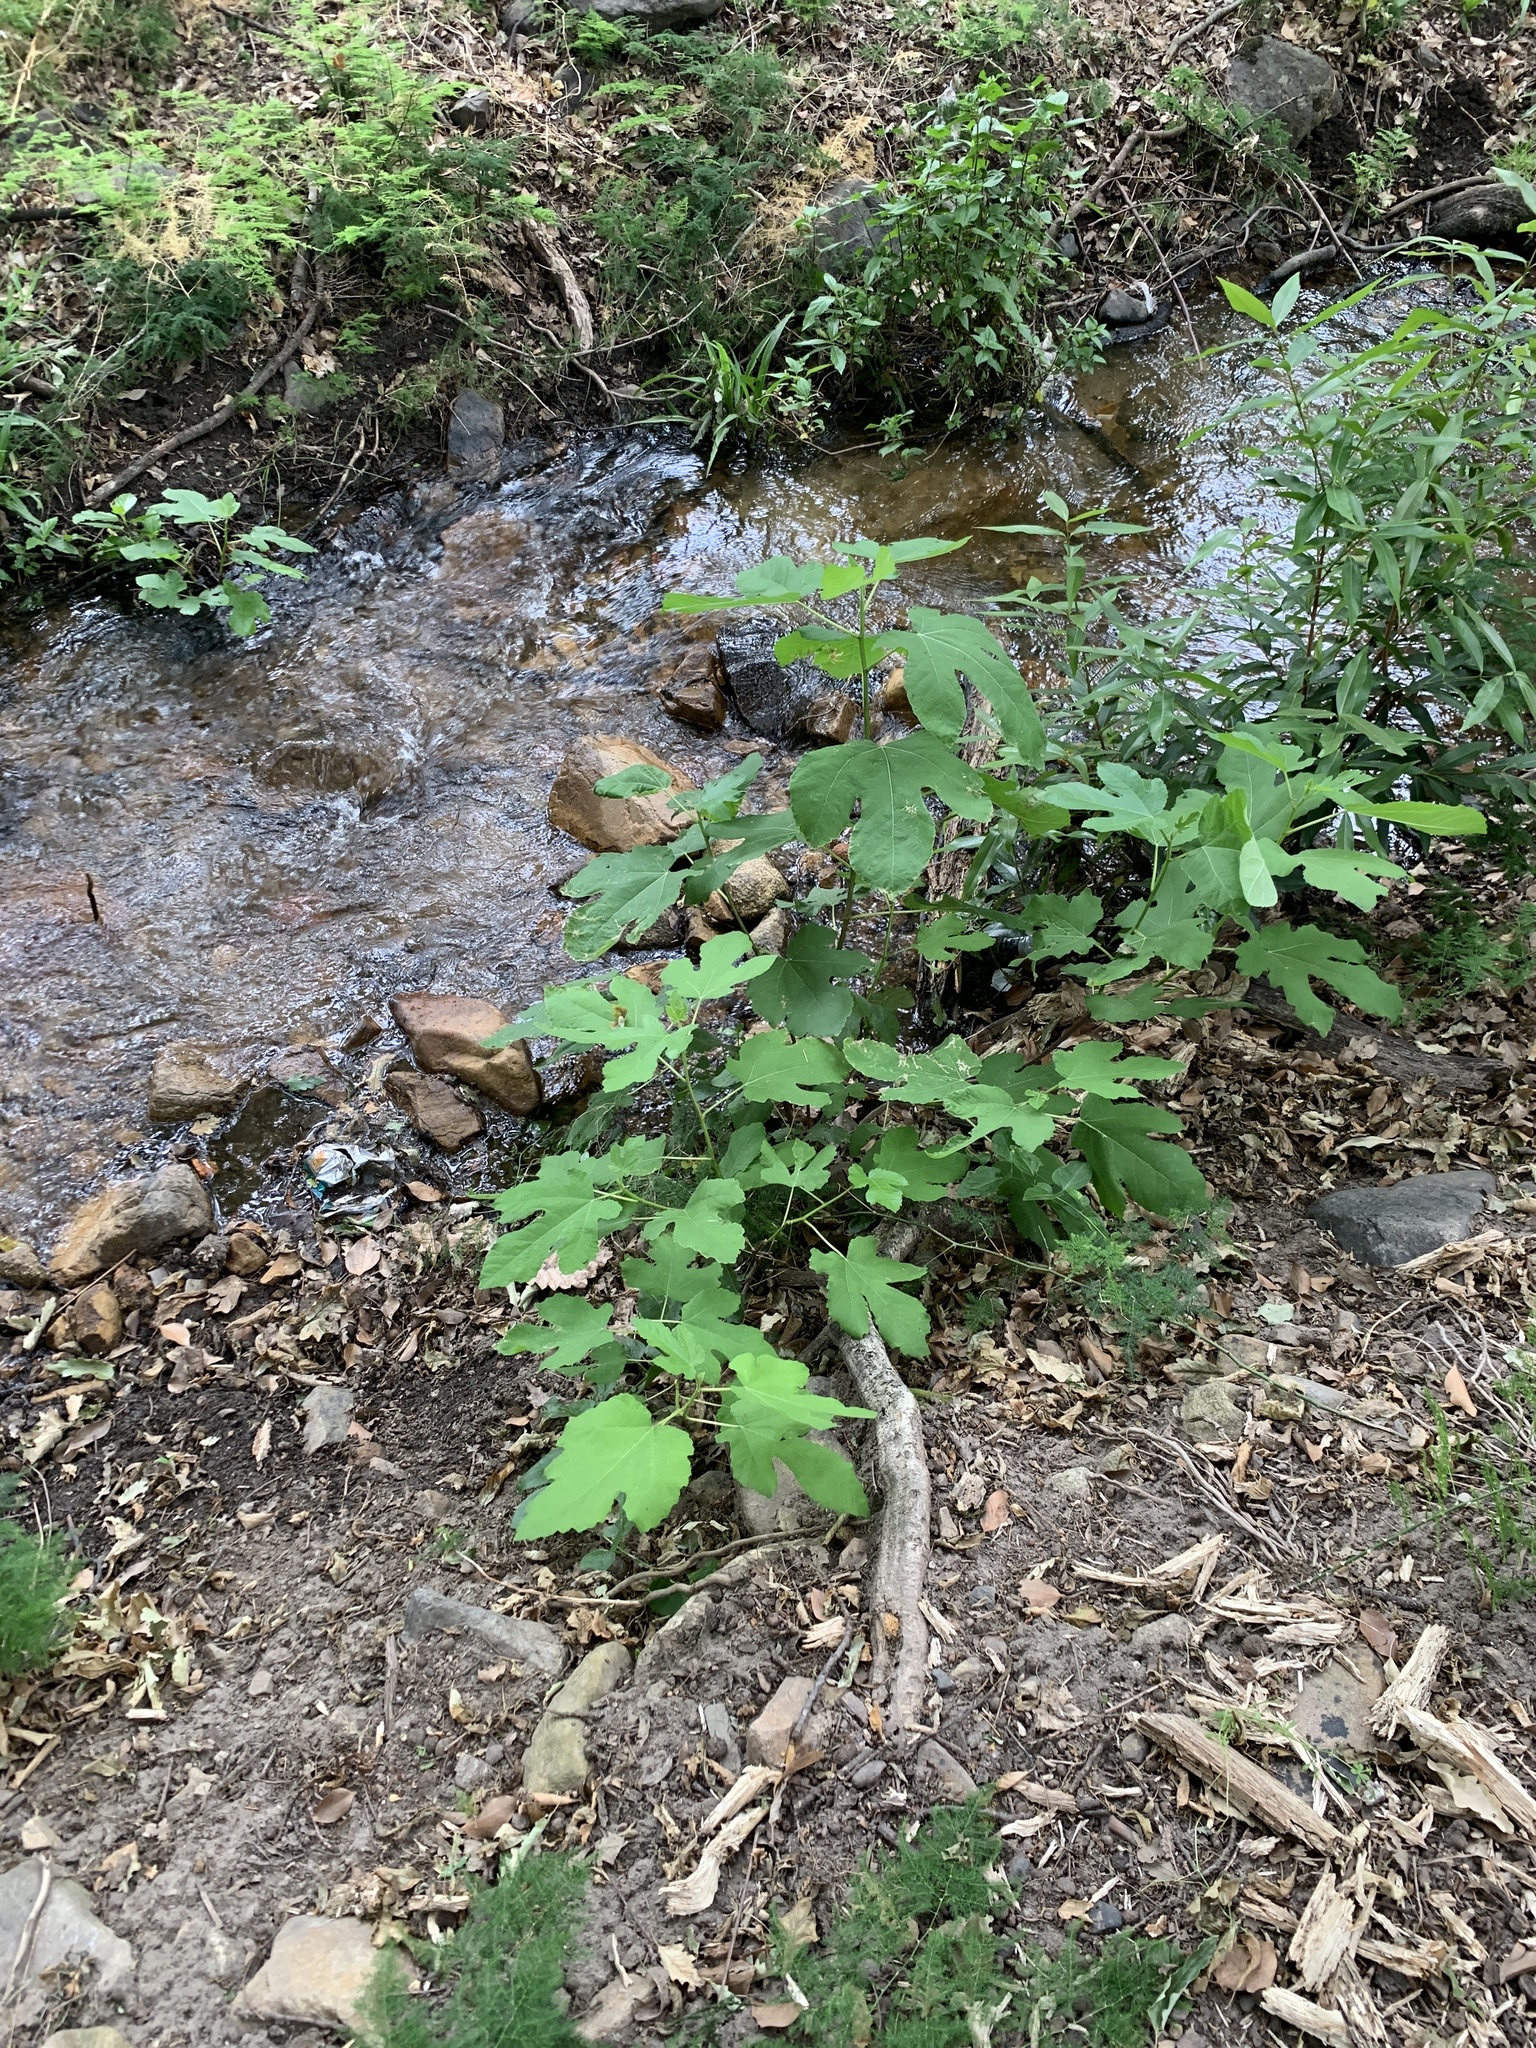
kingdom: Plantae
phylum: Tracheophyta
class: Magnoliopsida
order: Rosales
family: Moraceae
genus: Ficus
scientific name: Ficus carica
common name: Fig
